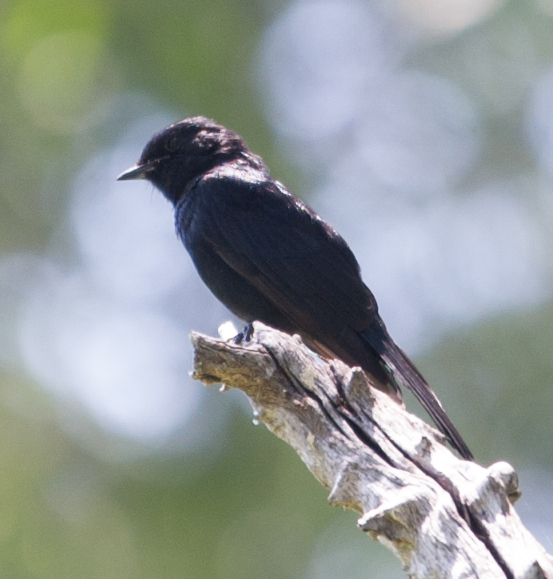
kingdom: Animalia
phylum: Chordata
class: Aves
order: Passeriformes
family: Muscicapidae
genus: Melaenornis
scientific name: Melaenornis pammelaina
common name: Southern black flycatcher
